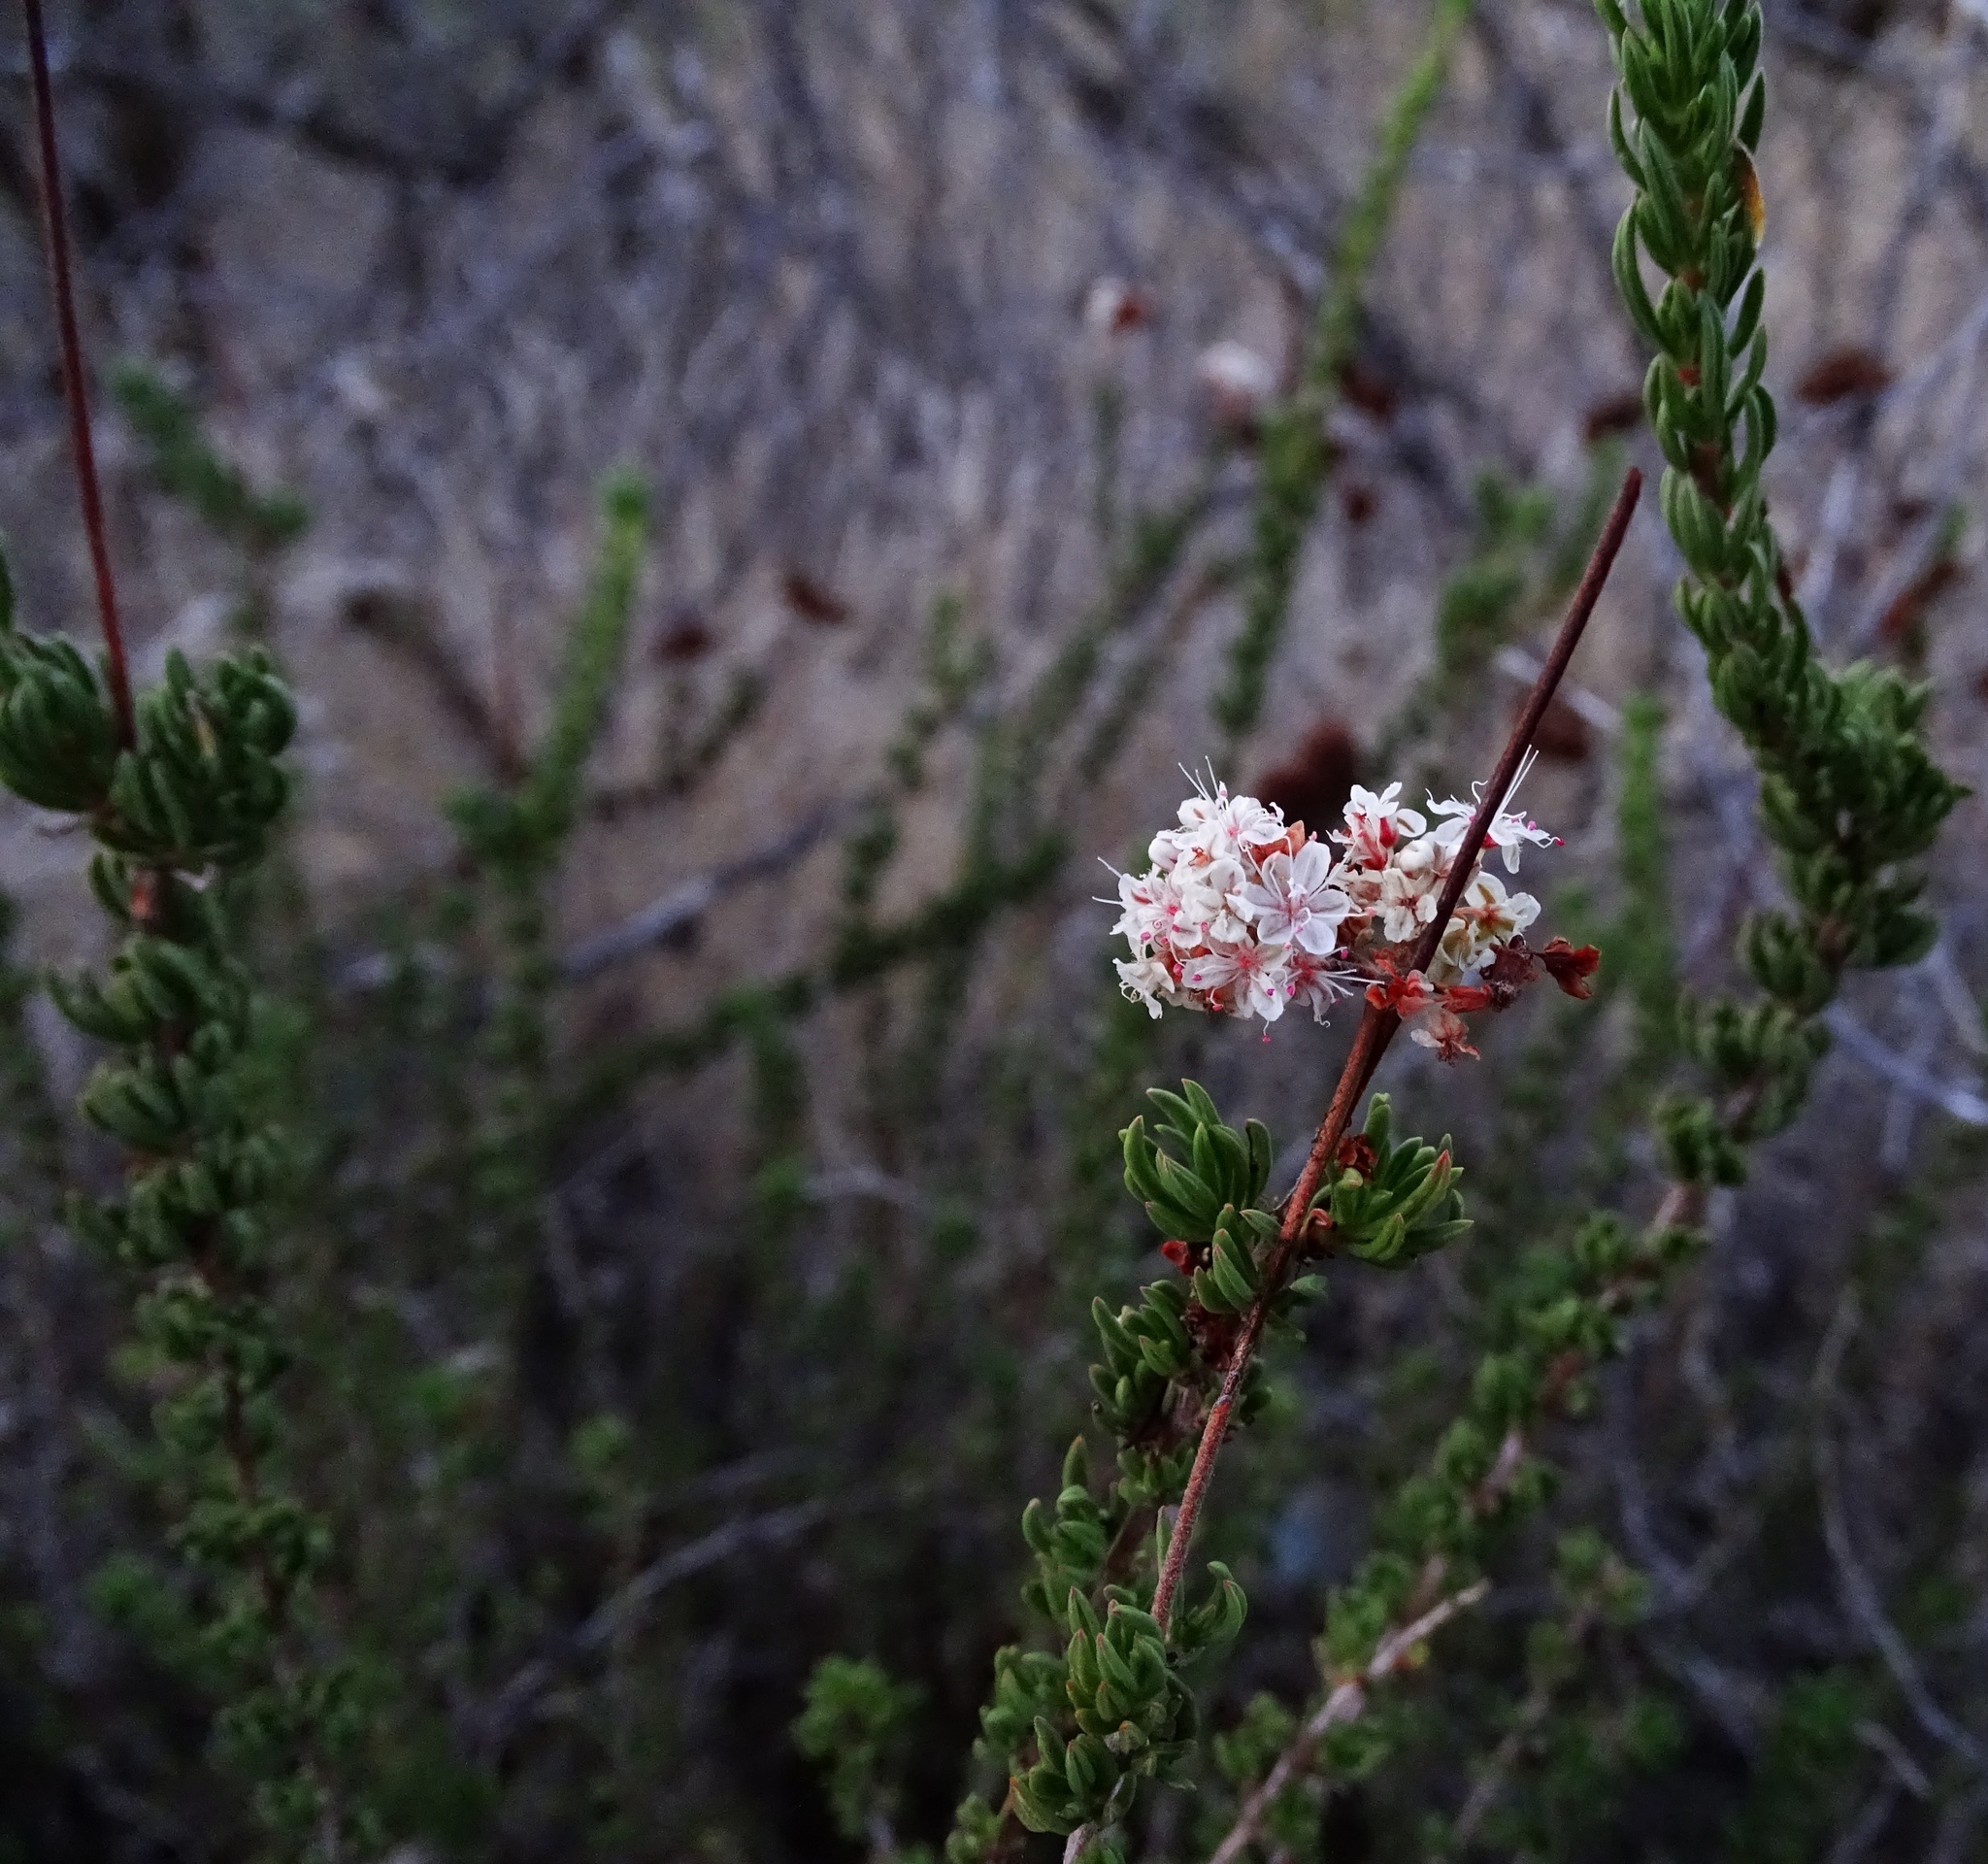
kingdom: Plantae
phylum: Tracheophyta
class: Magnoliopsida
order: Caryophyllales
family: Polygonaceae
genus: Eriogonum
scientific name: Eriogonum fasciculatum
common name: California wild buckwheat
